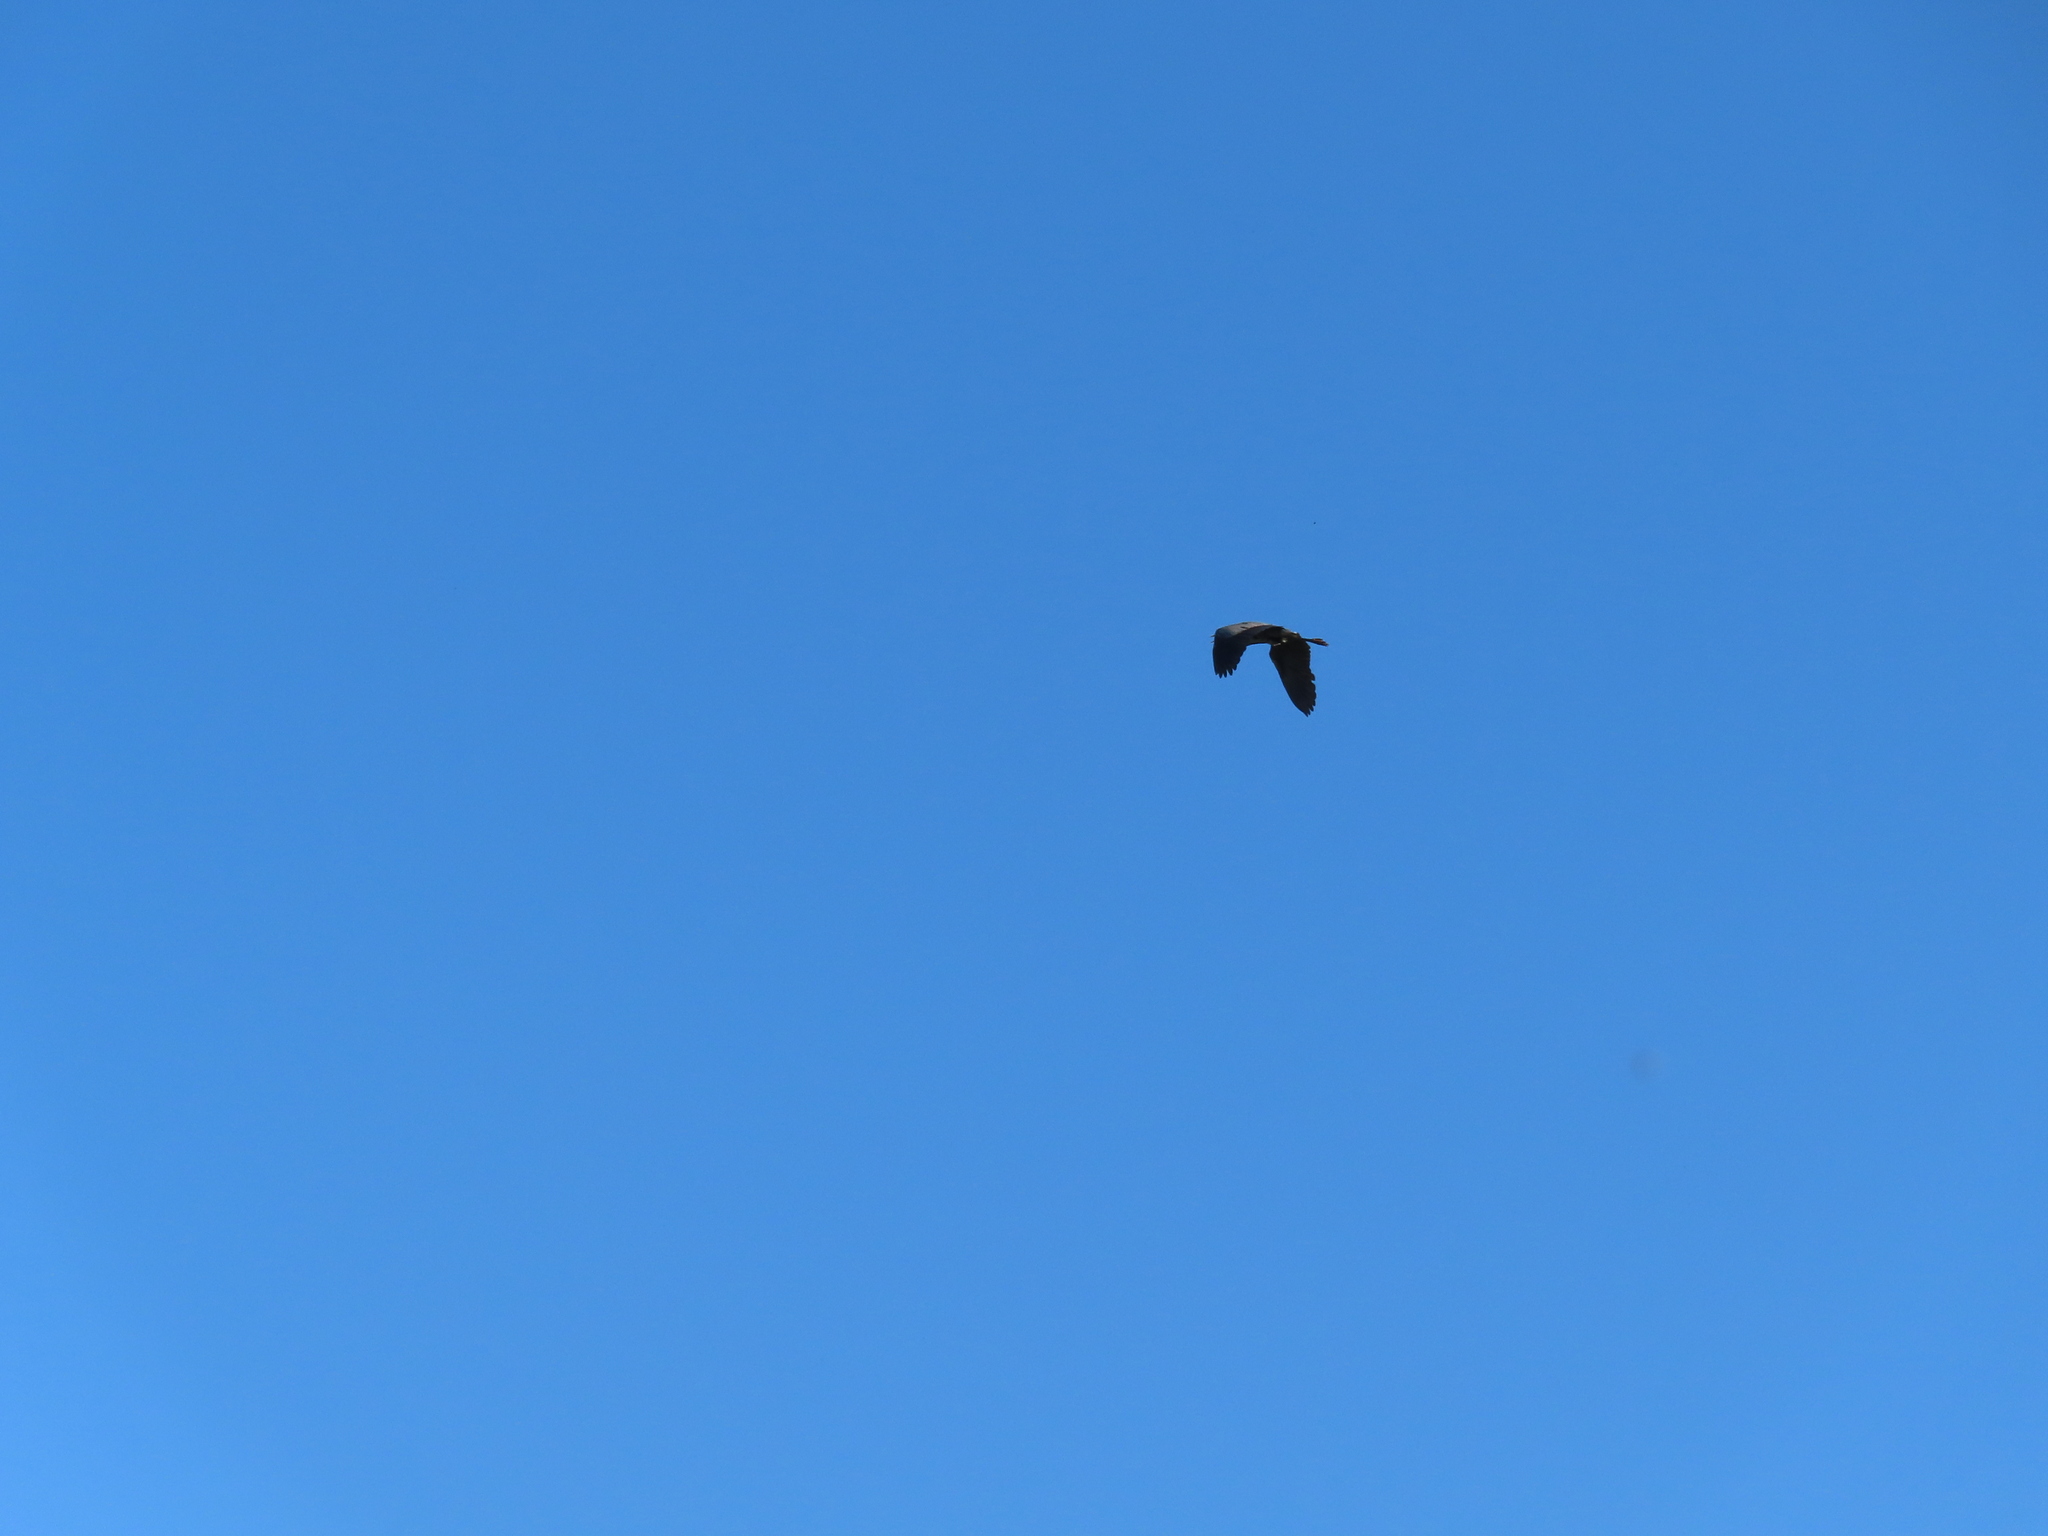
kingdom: Animalia
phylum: Chordata
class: Aves
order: Pelecaniformes
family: Ardeidae
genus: Ardea
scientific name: Ardea herodias
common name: Great blue heron
